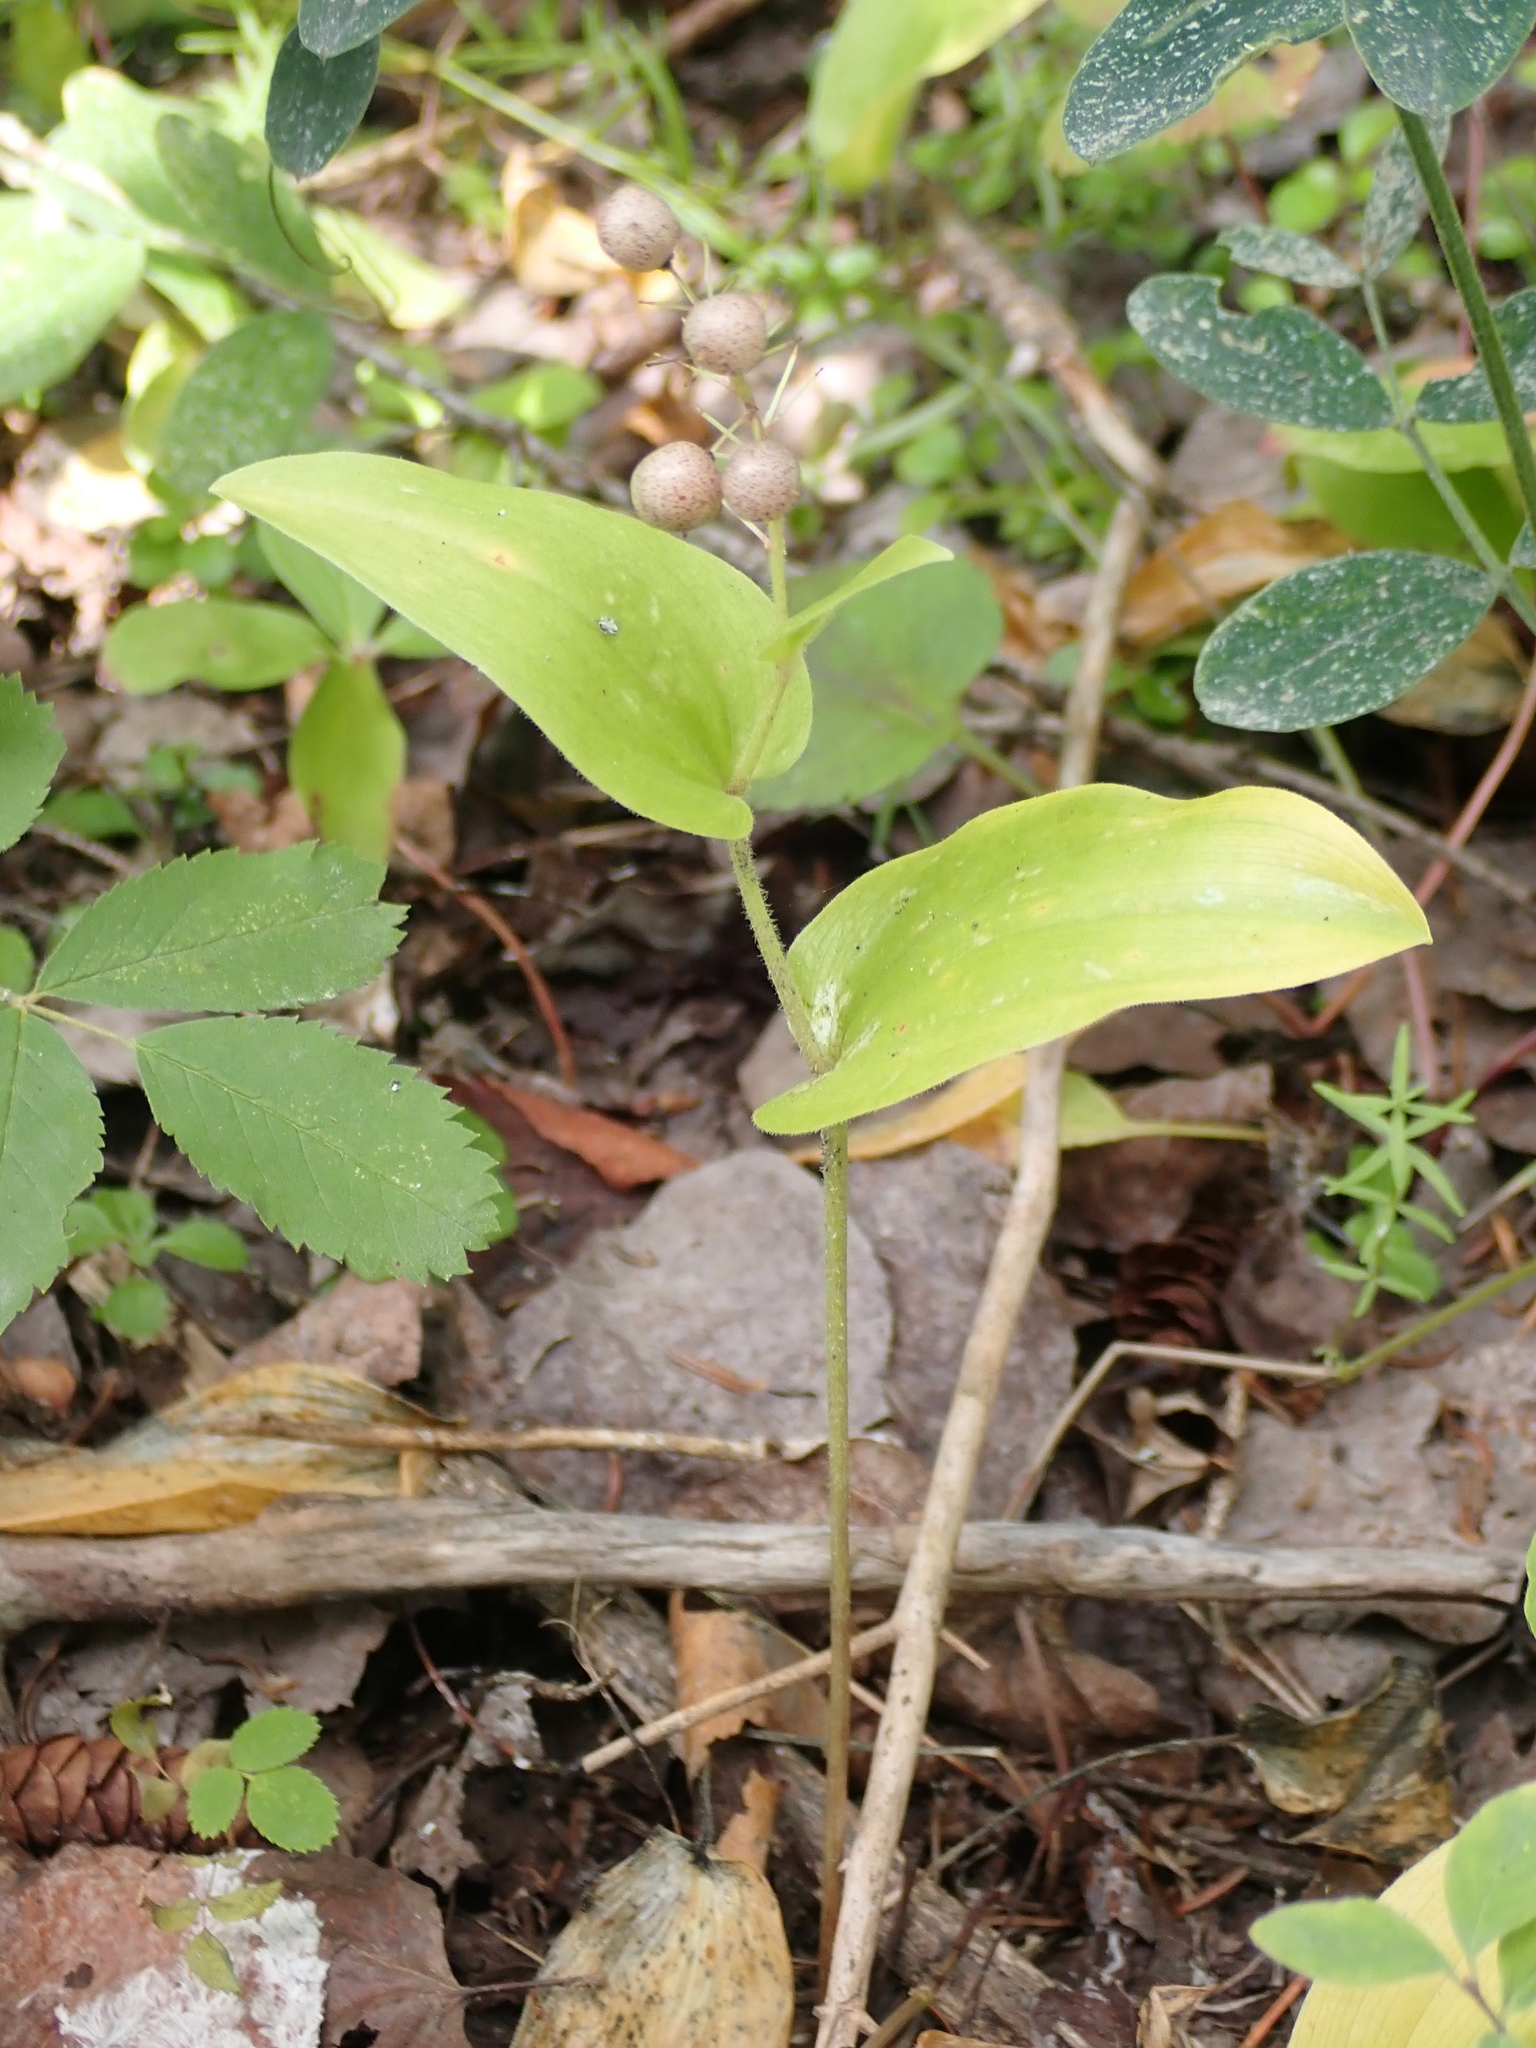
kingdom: Plantae
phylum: Tracheophyta
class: Liliopsida
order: Asparagales
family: Asparagaceae
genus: Maianthemum
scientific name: Maianthemum canadense
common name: False lily-of-the-valley
